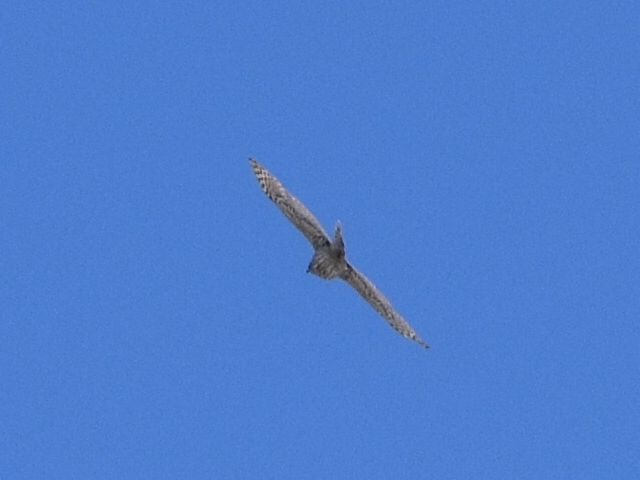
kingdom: Animalia
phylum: Chordata
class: Aves
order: Accipitriformes
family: Accipitridae
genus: Accipiter
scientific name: Accipiter gentilis
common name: Northern goshawk
